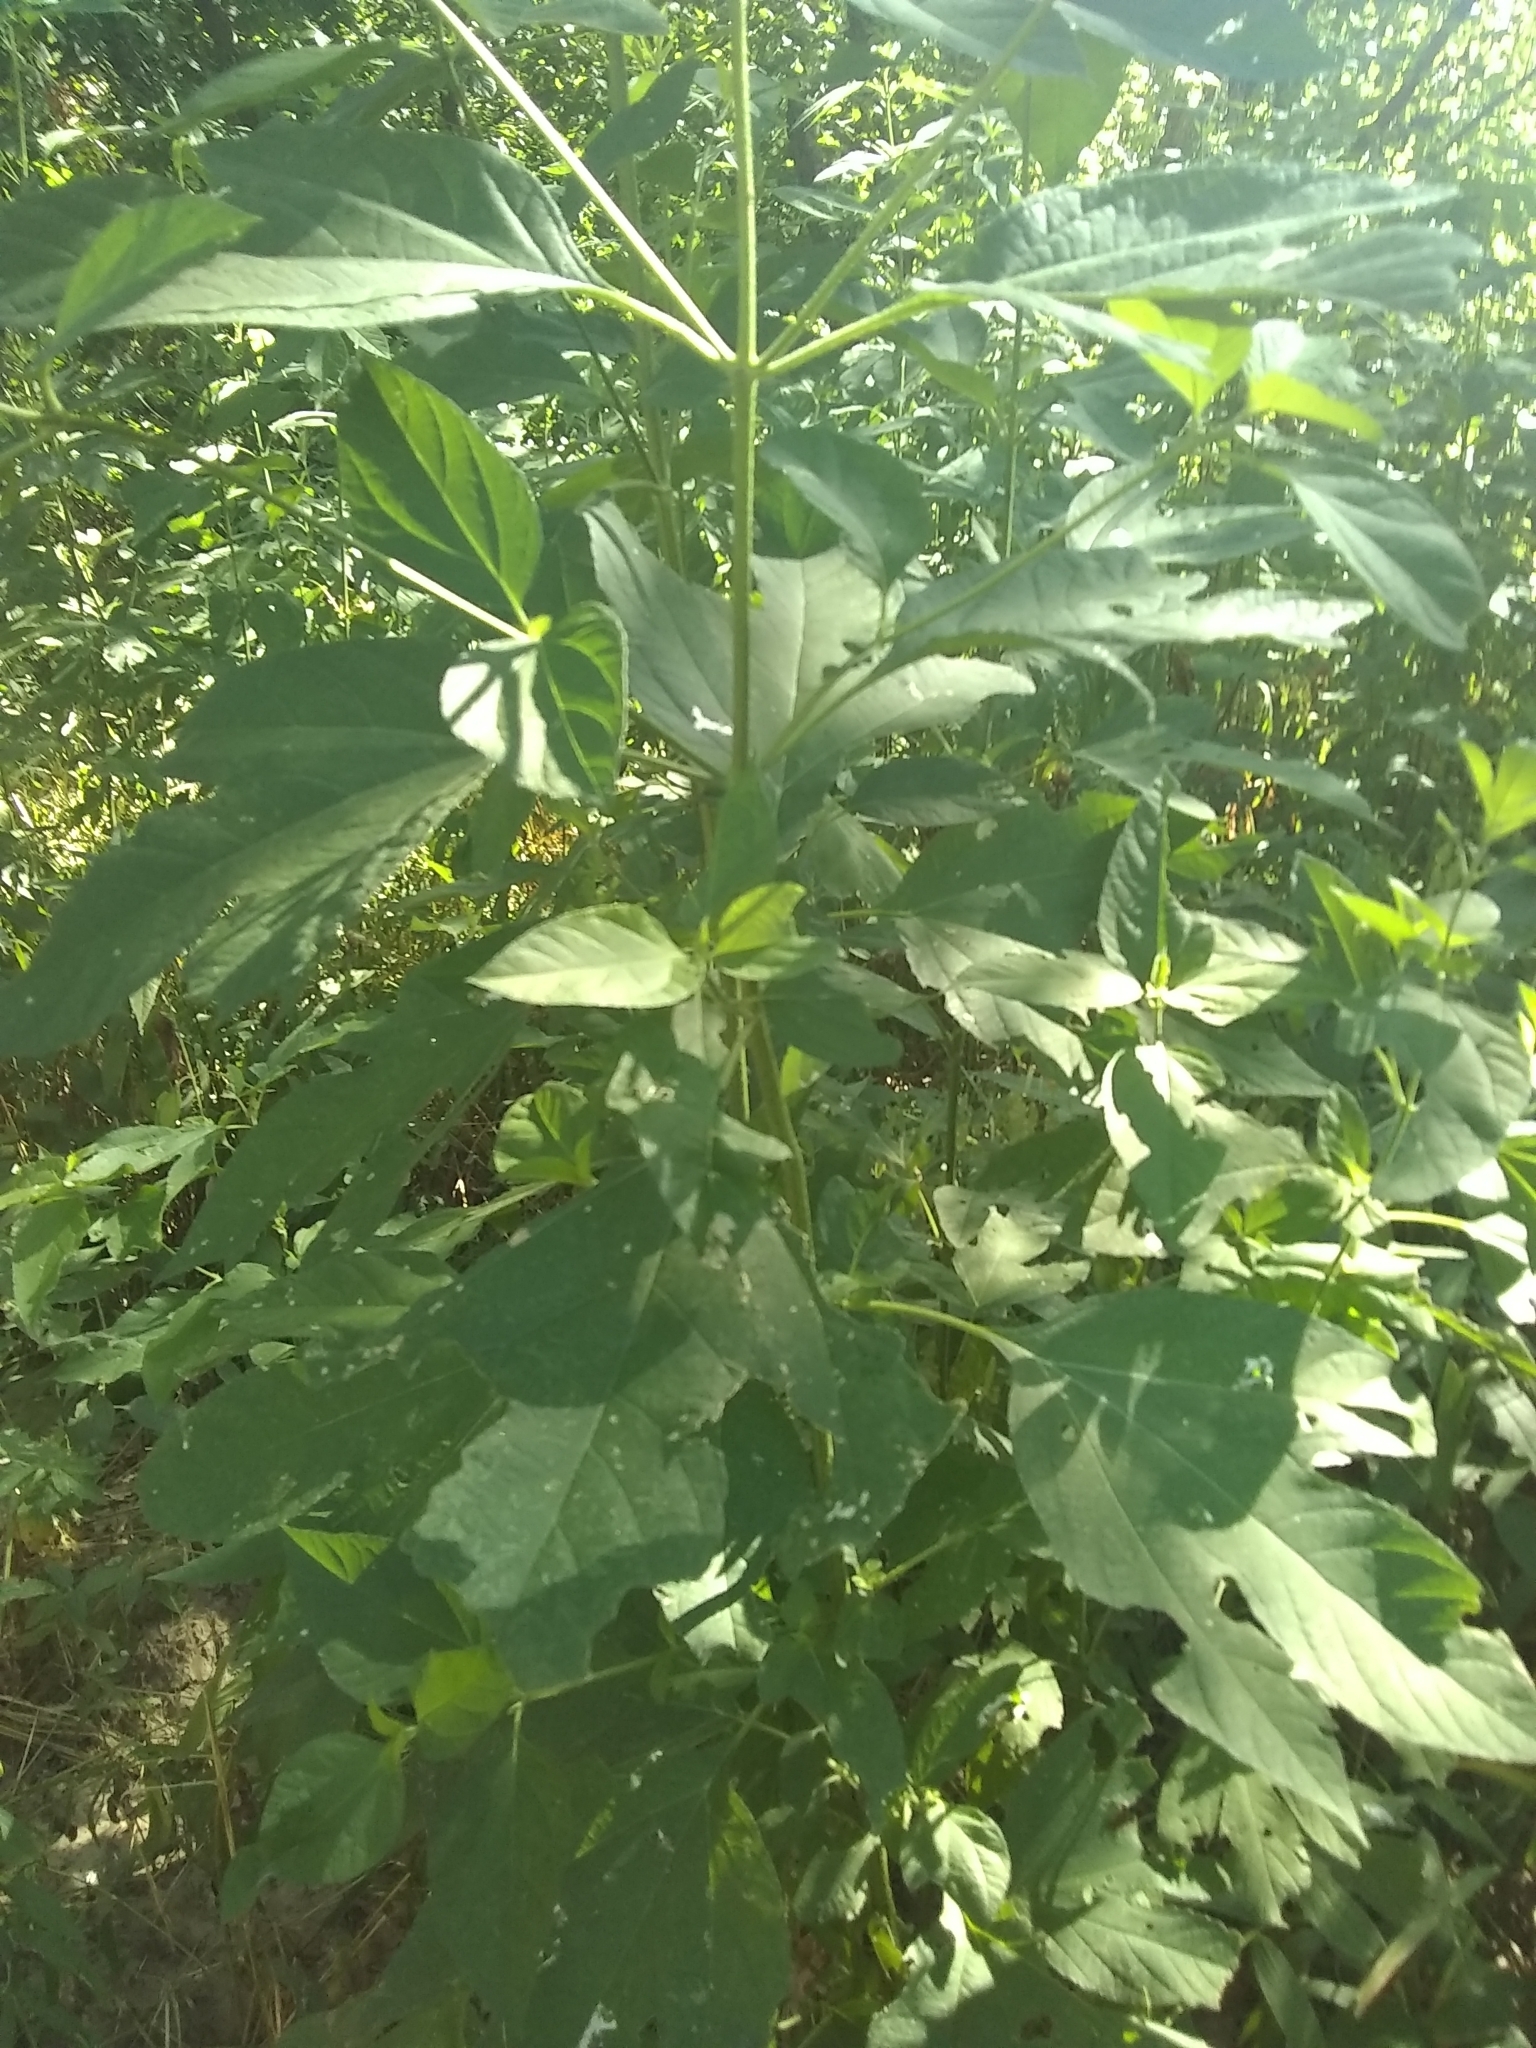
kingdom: Plantae
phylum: Tracheophyta
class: Magnoliopsida
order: Asterales
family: Asteraceae
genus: Ambrosia
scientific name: Ambrosia trifida
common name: Giant ragweed
